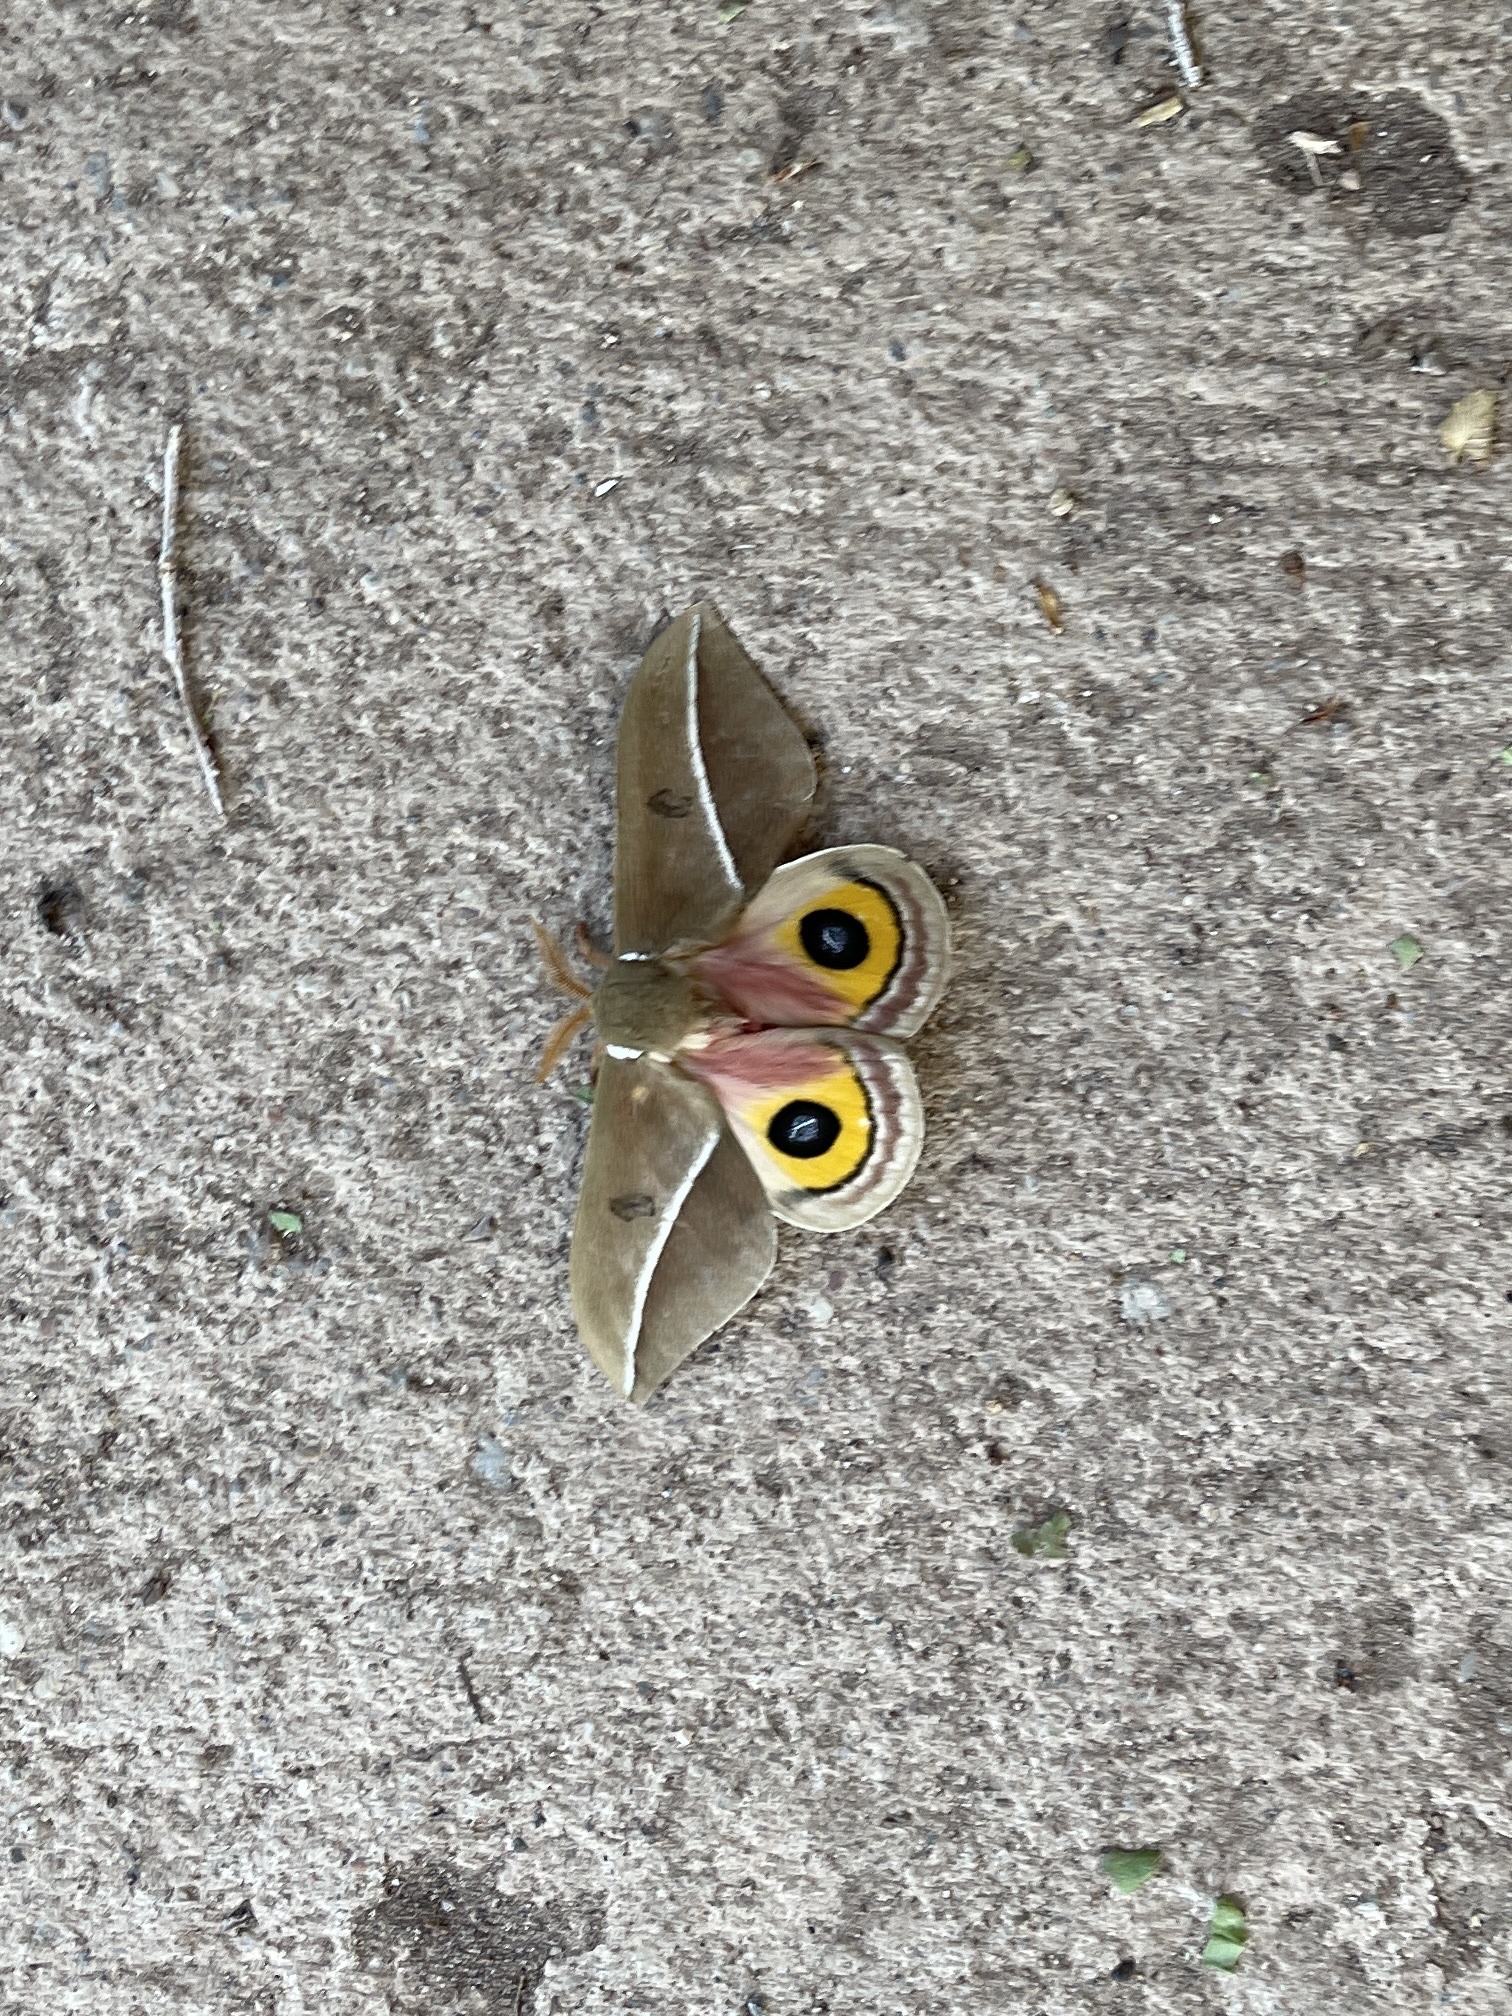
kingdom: Animalia
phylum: Arthropoda
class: Insecta
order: Lepidoptera
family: Saturniidae
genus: Automeris
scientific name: Automeris zephyria
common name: Zephyr eyed silkmoth
